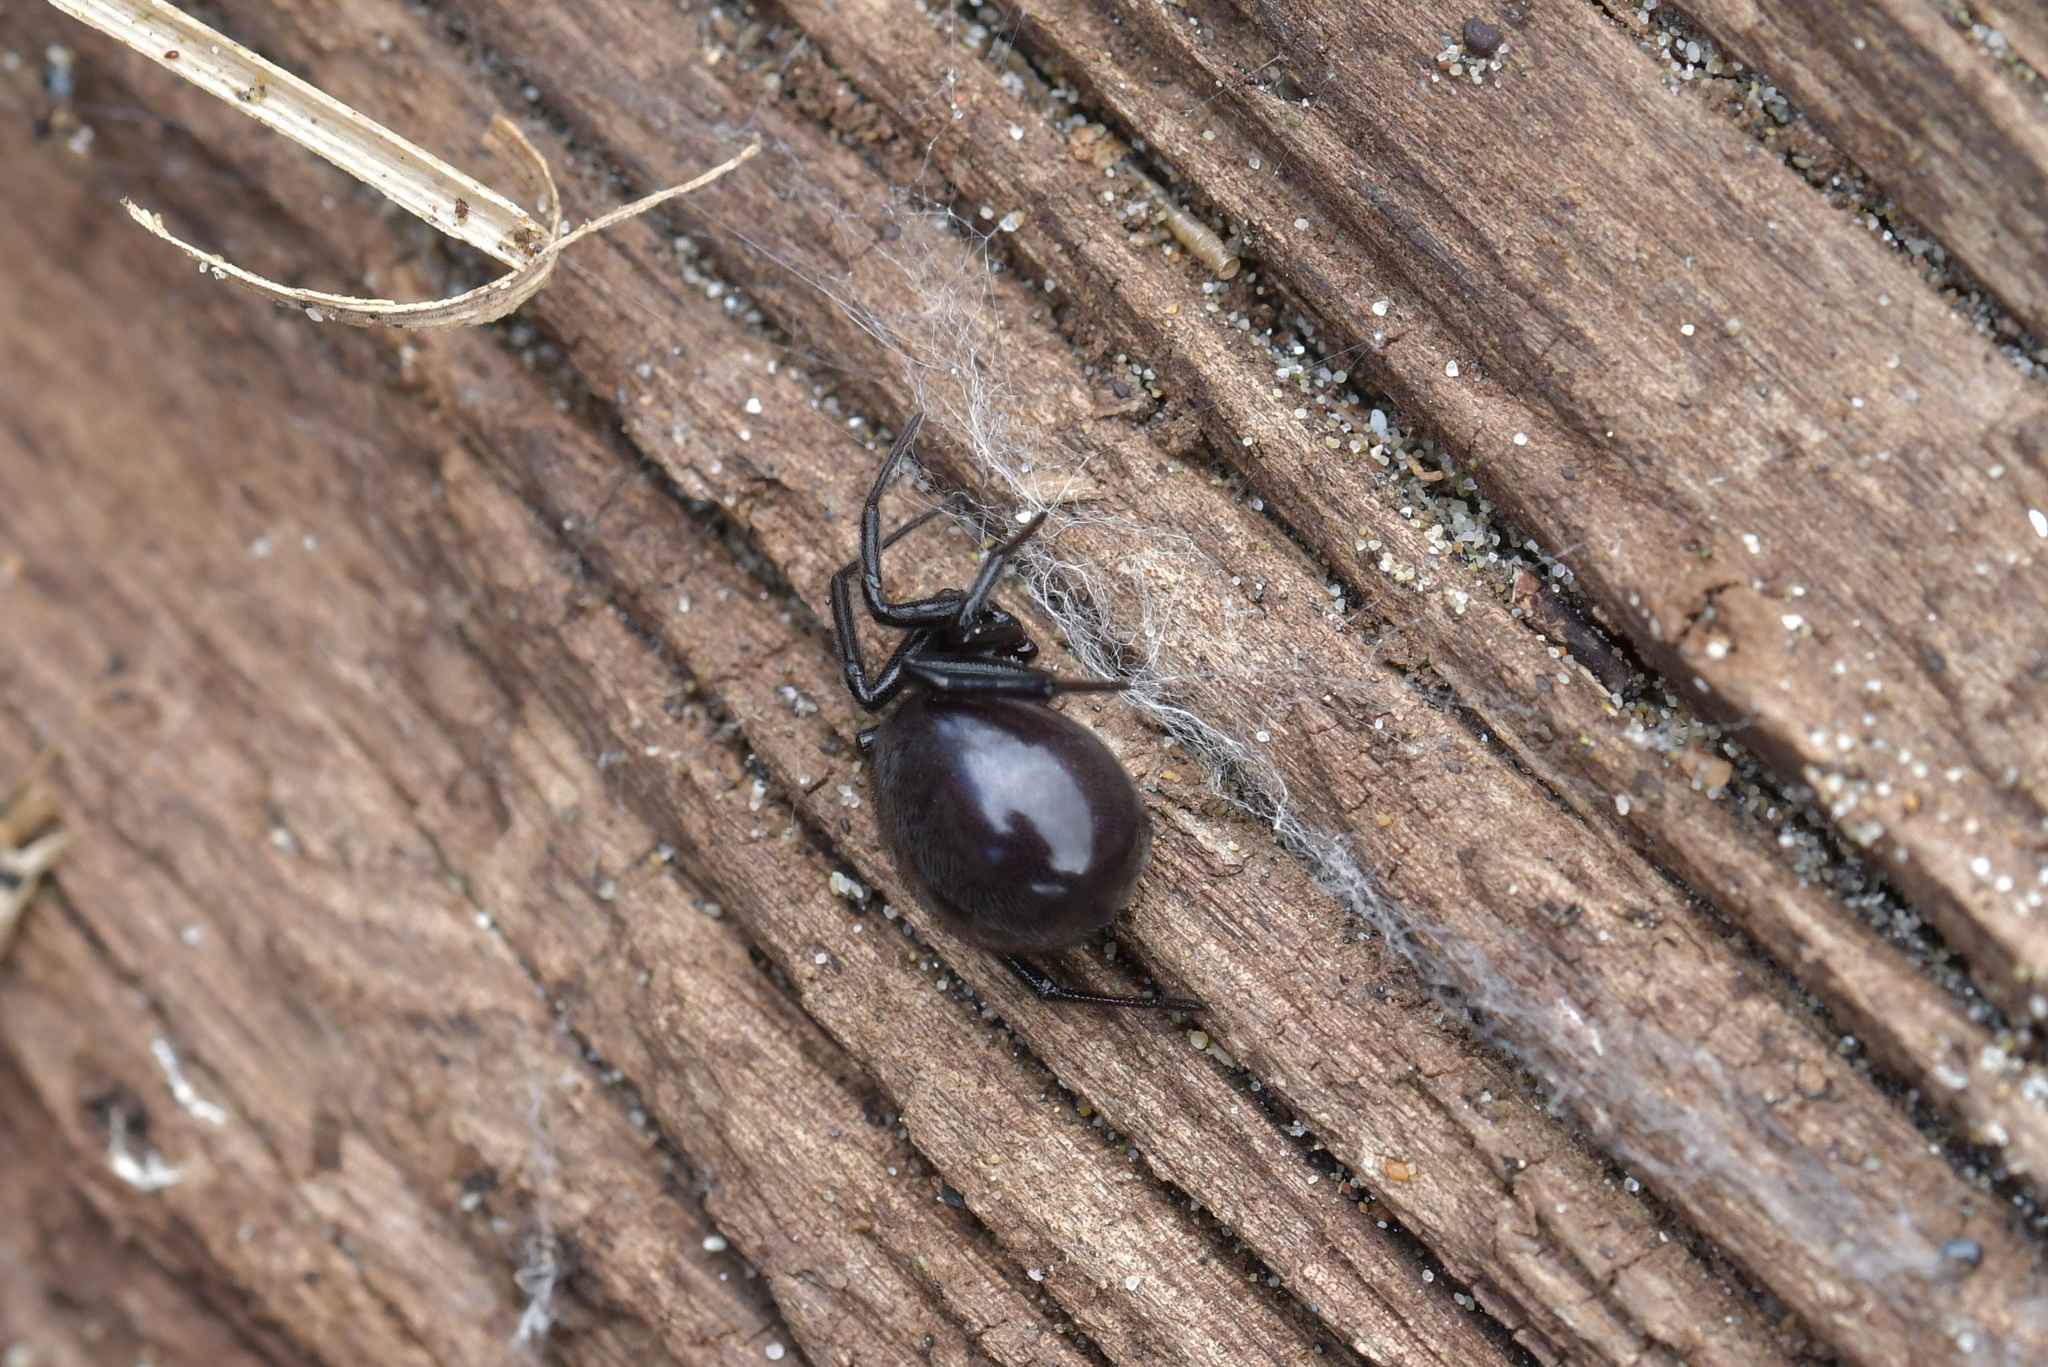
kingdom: Animalia
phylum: Arthropoda
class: Arachnida
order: Araneae
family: Theridiidae
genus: Steatoda
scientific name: Steatoda capensis
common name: Cobweb weaver
